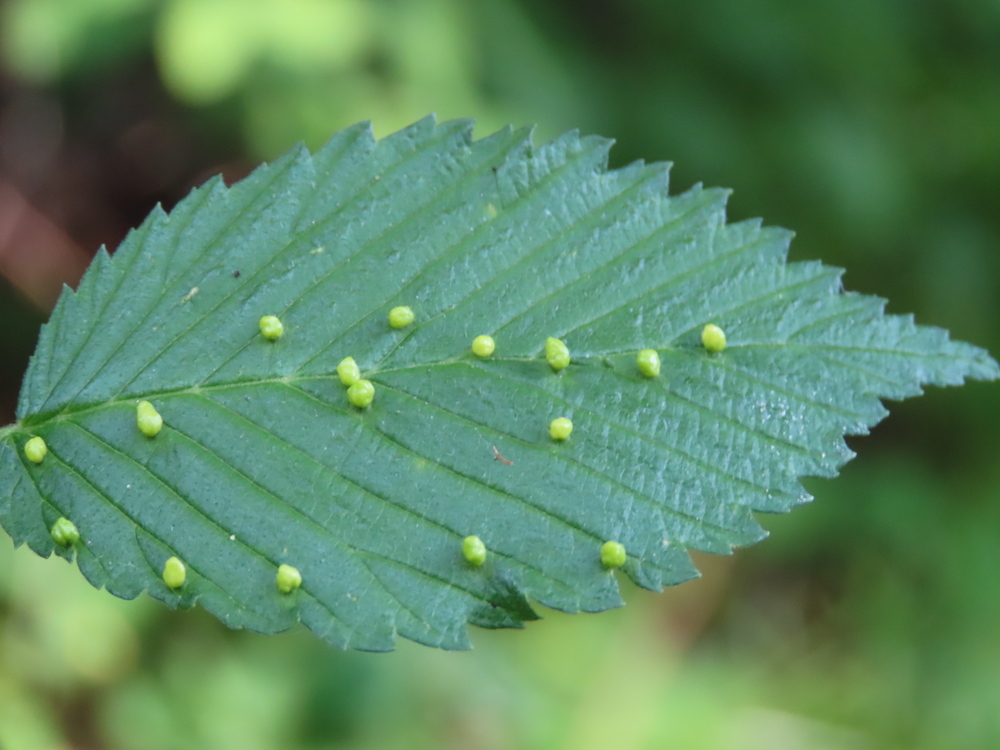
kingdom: Animalia
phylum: Arthropoda
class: Arachnida
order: Trombidiformes
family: Eriophyidae
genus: Aceria
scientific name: Aceria brevipunctata
